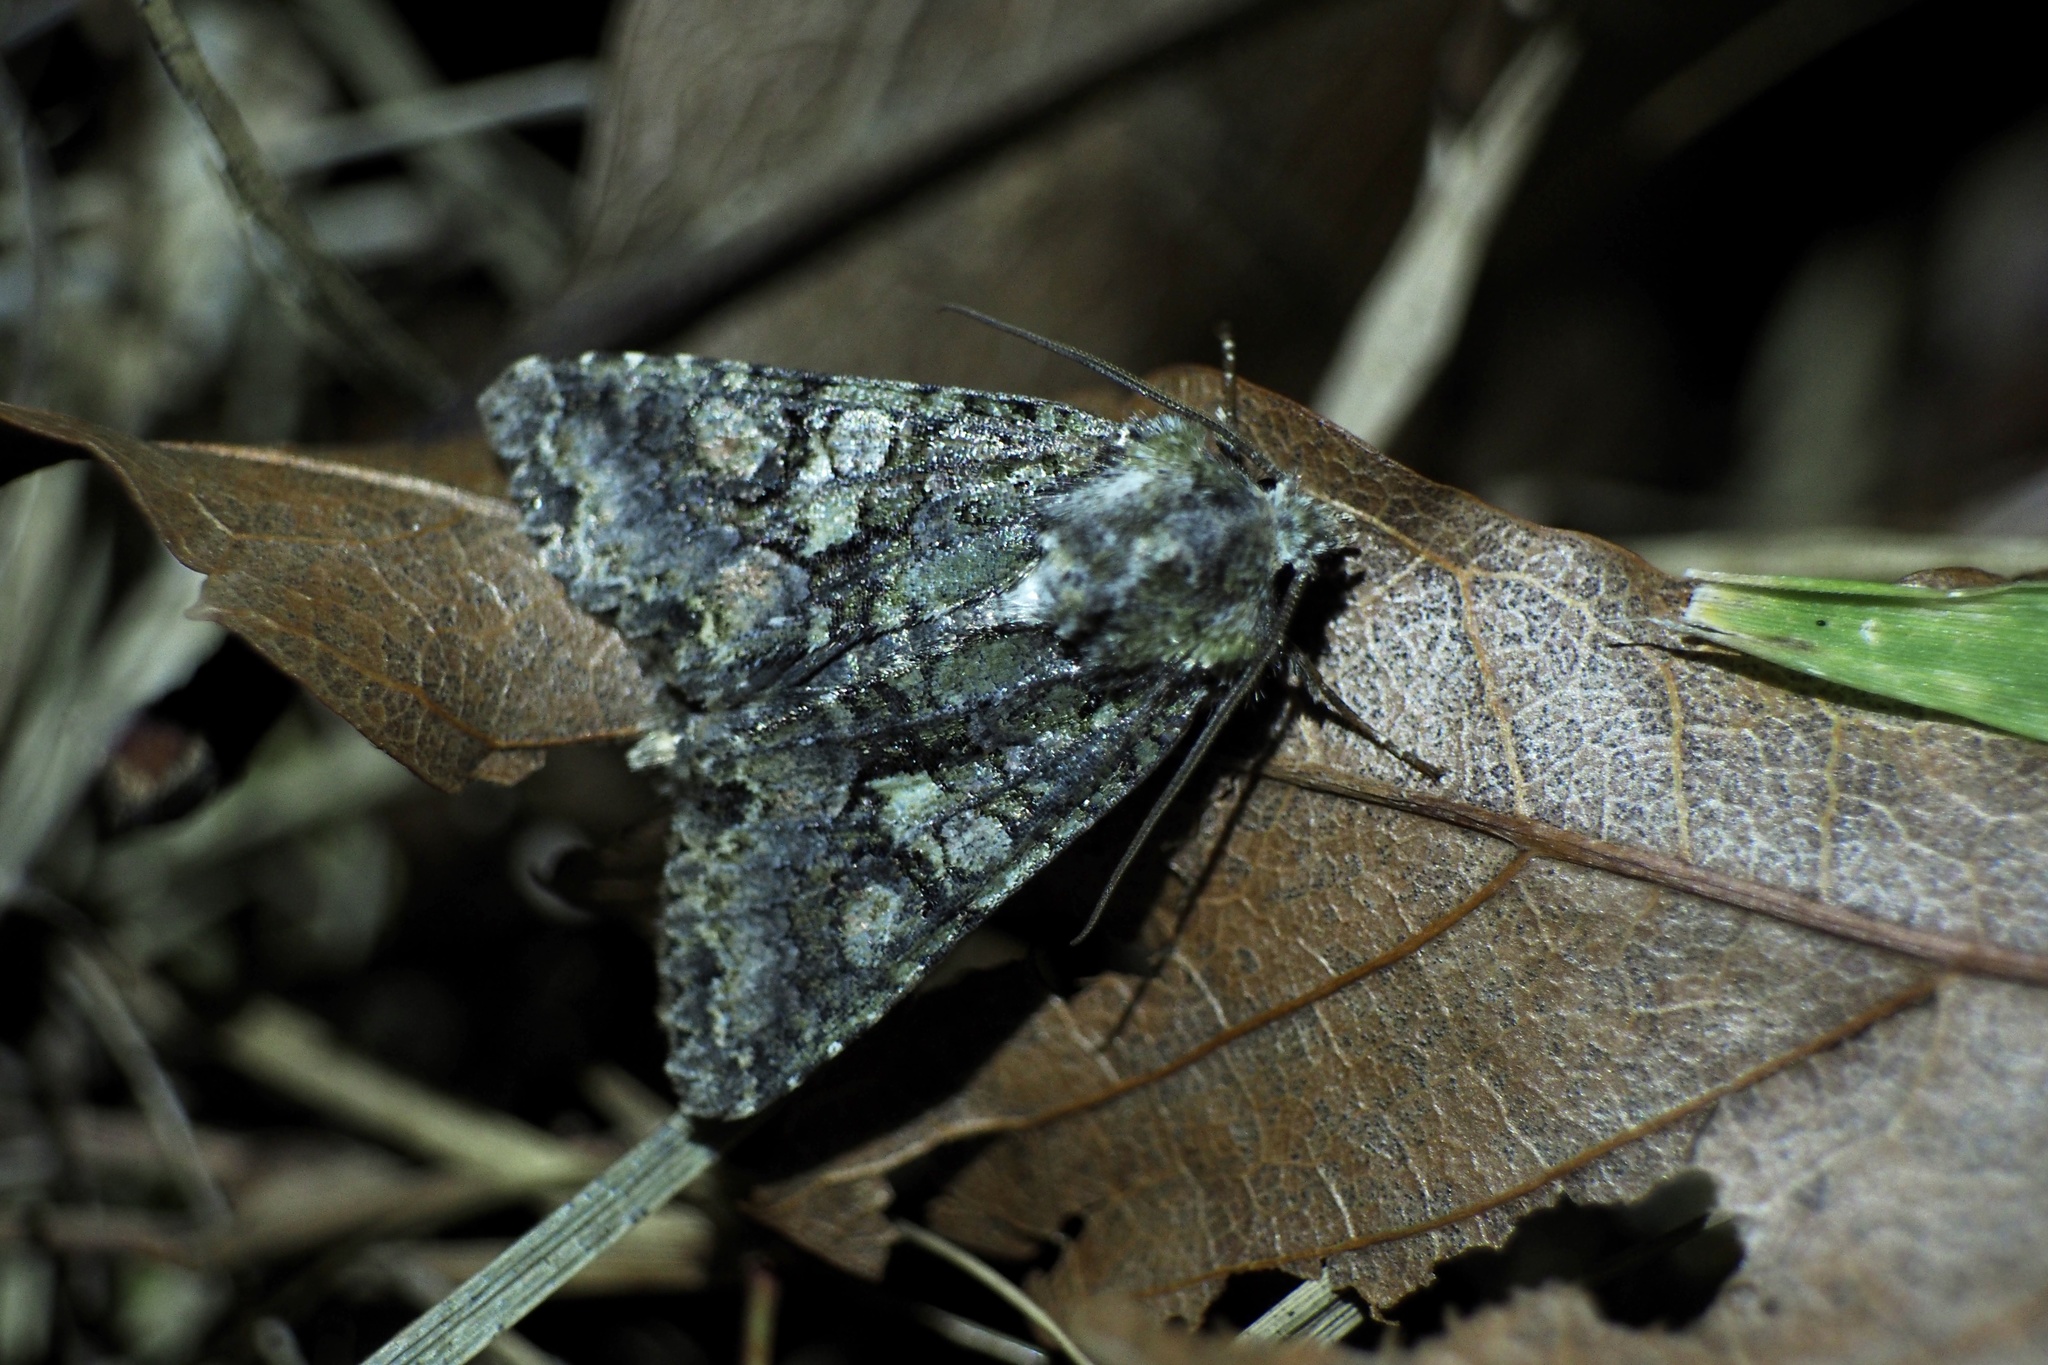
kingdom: Animalia
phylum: Arthropoda
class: Insecta
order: Lepidoptera
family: Noctuidae
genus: Dryobotodes
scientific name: Dryobotodes intermissa
